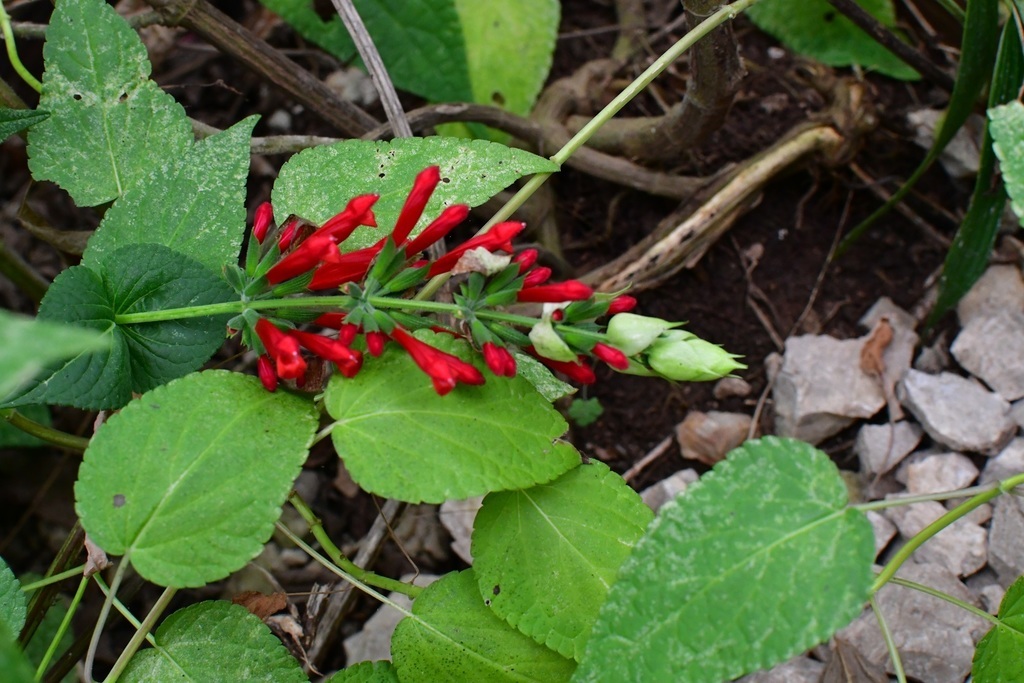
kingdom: Plantae
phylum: Tracheophyta
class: Magnoliopsida
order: Lamiales
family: Lamiaceae
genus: Salvia
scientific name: Salvia holwayi
